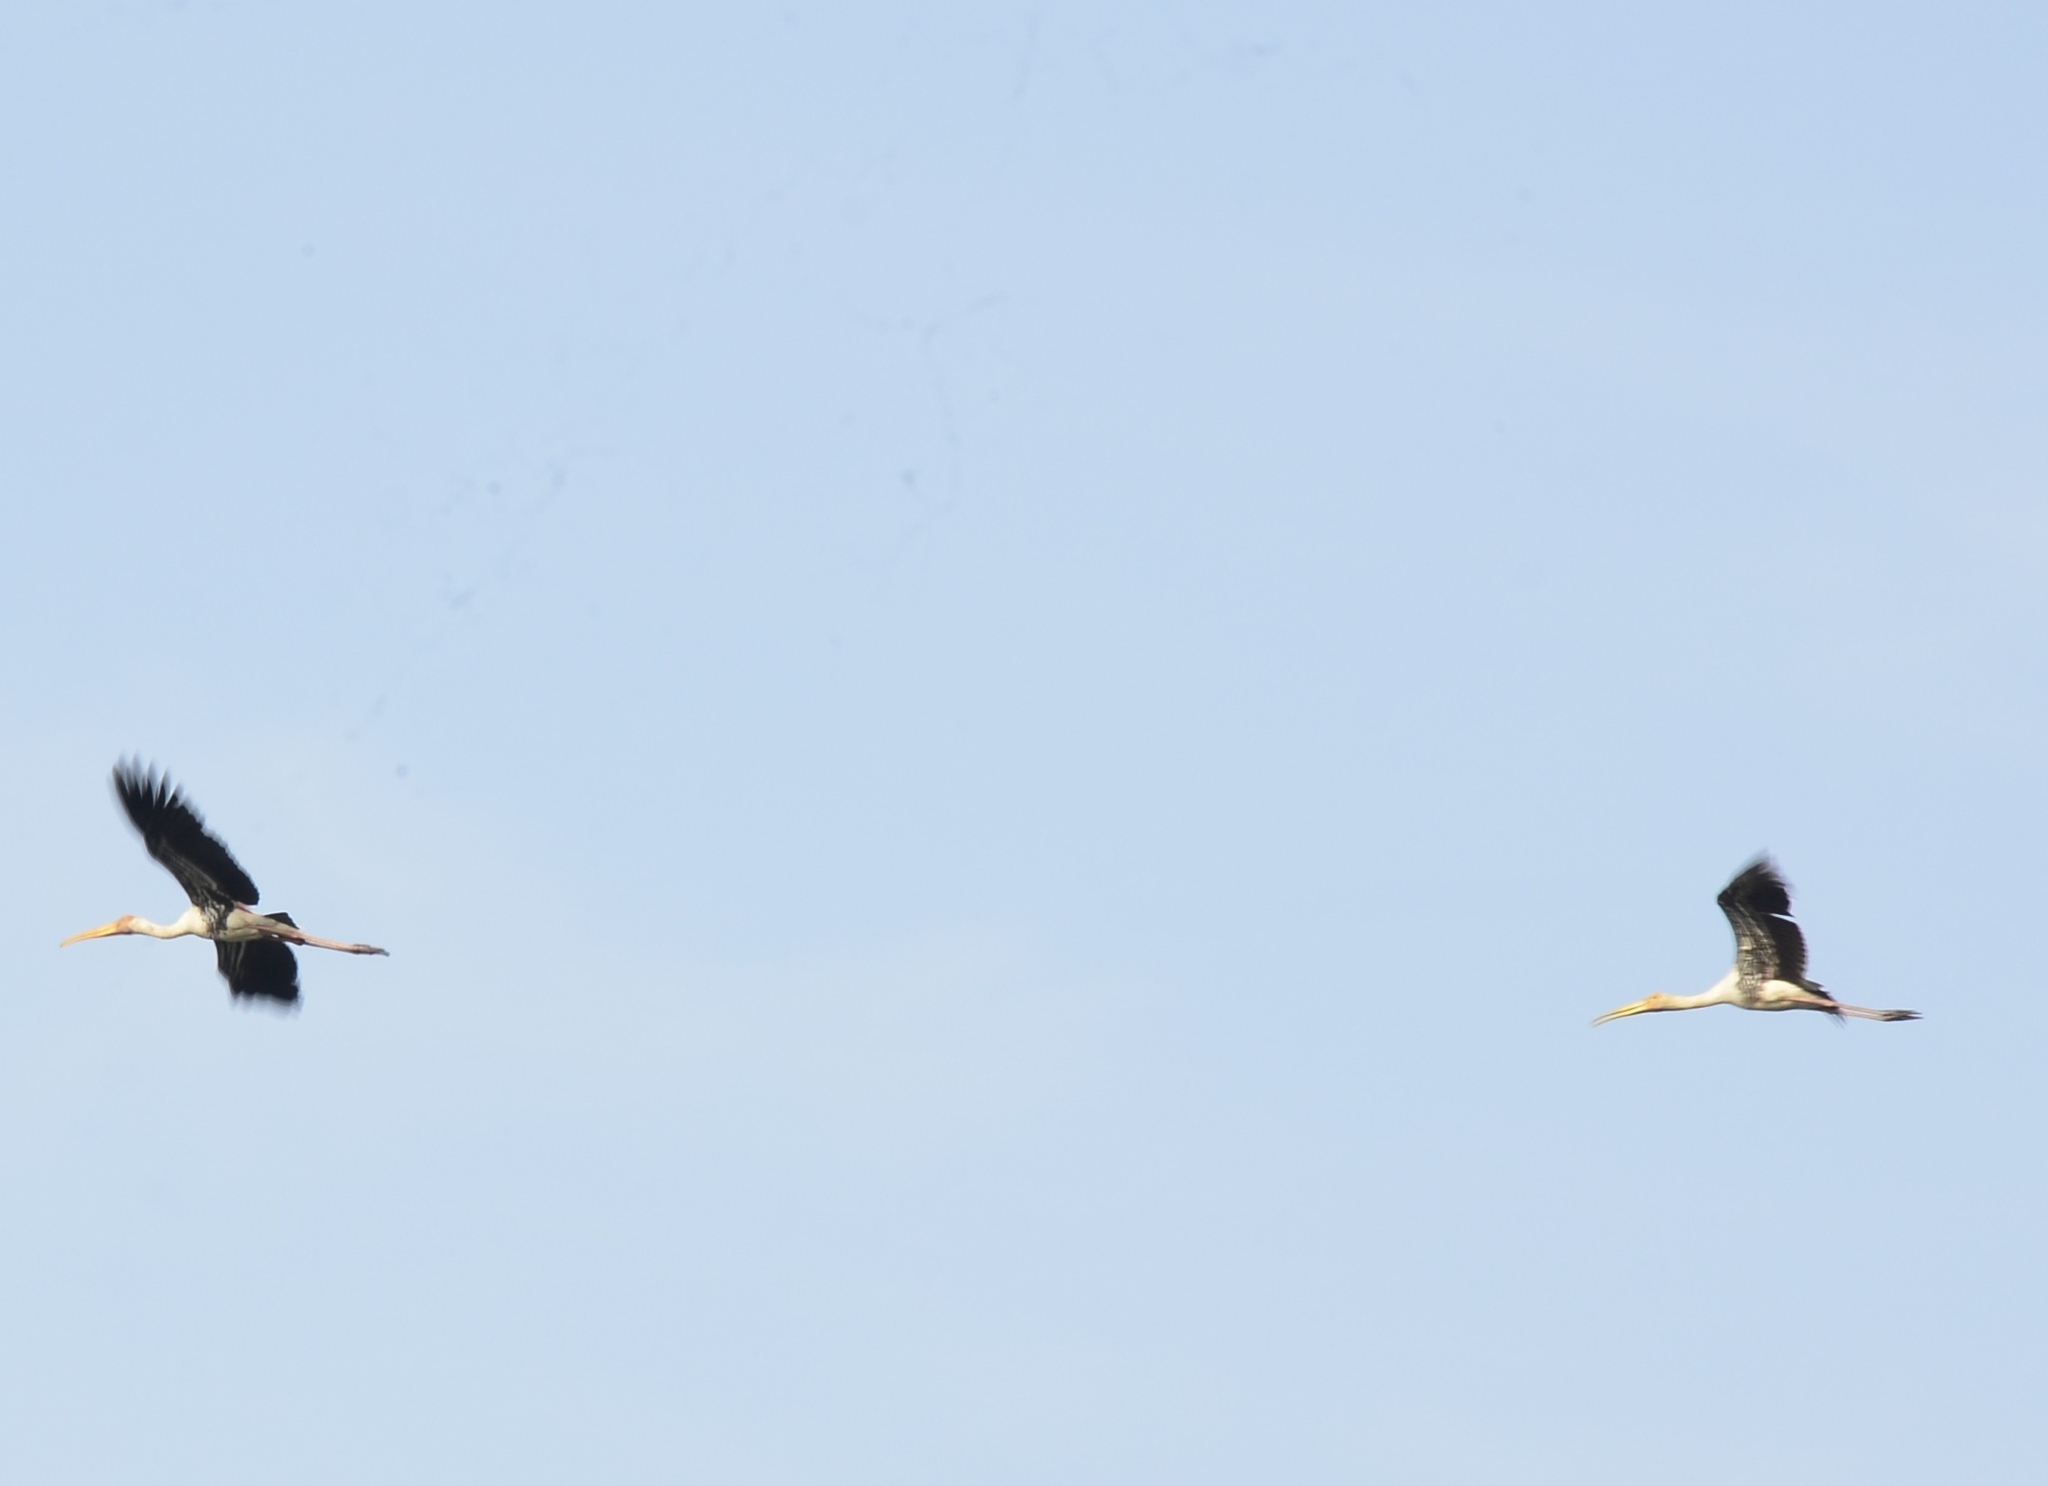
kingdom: Animalia
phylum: Chordata
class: Aves
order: Ciconiiformes
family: Ciconiidae
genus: Mycteria
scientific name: Mycteria leucocephala
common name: Painted stork
